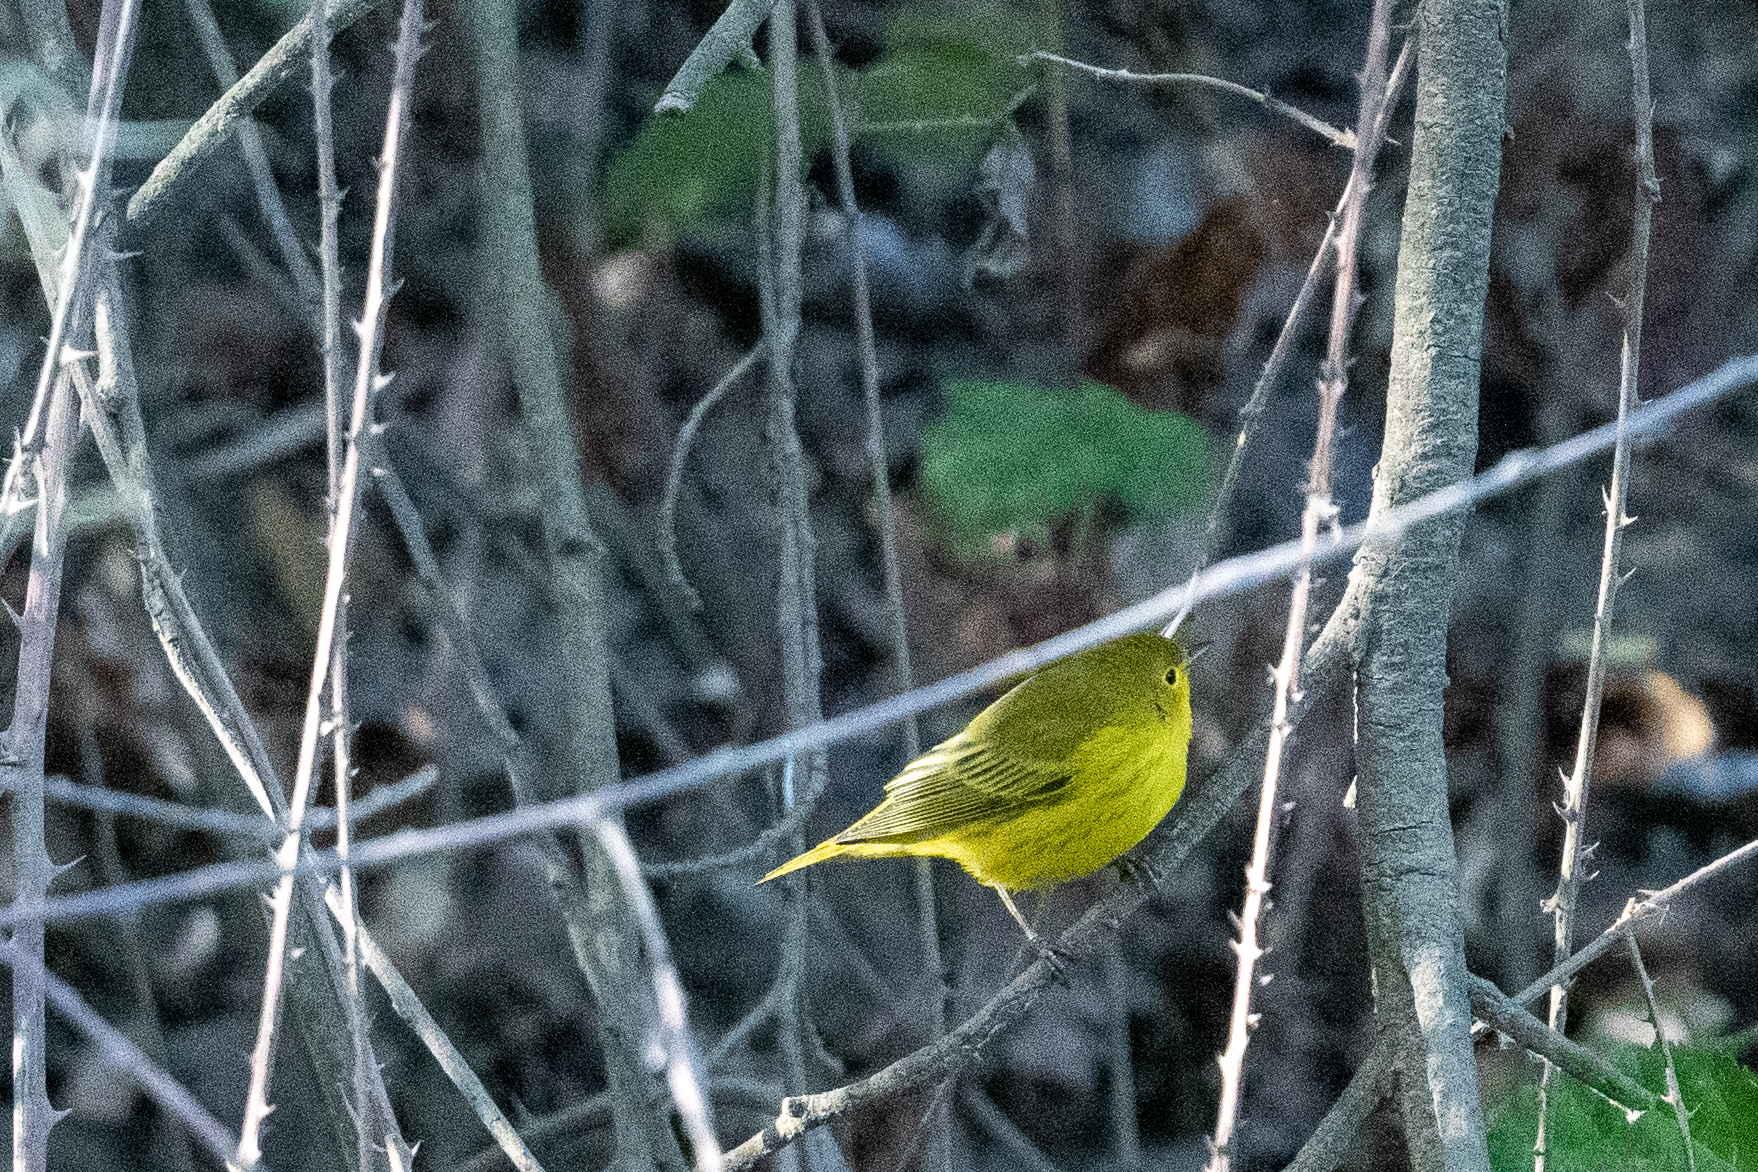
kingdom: Animalia
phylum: Chordata
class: Aves
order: Passeriformes
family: Parulidae
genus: Setophaga
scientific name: Setophaga petechia
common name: Yellow warbler
